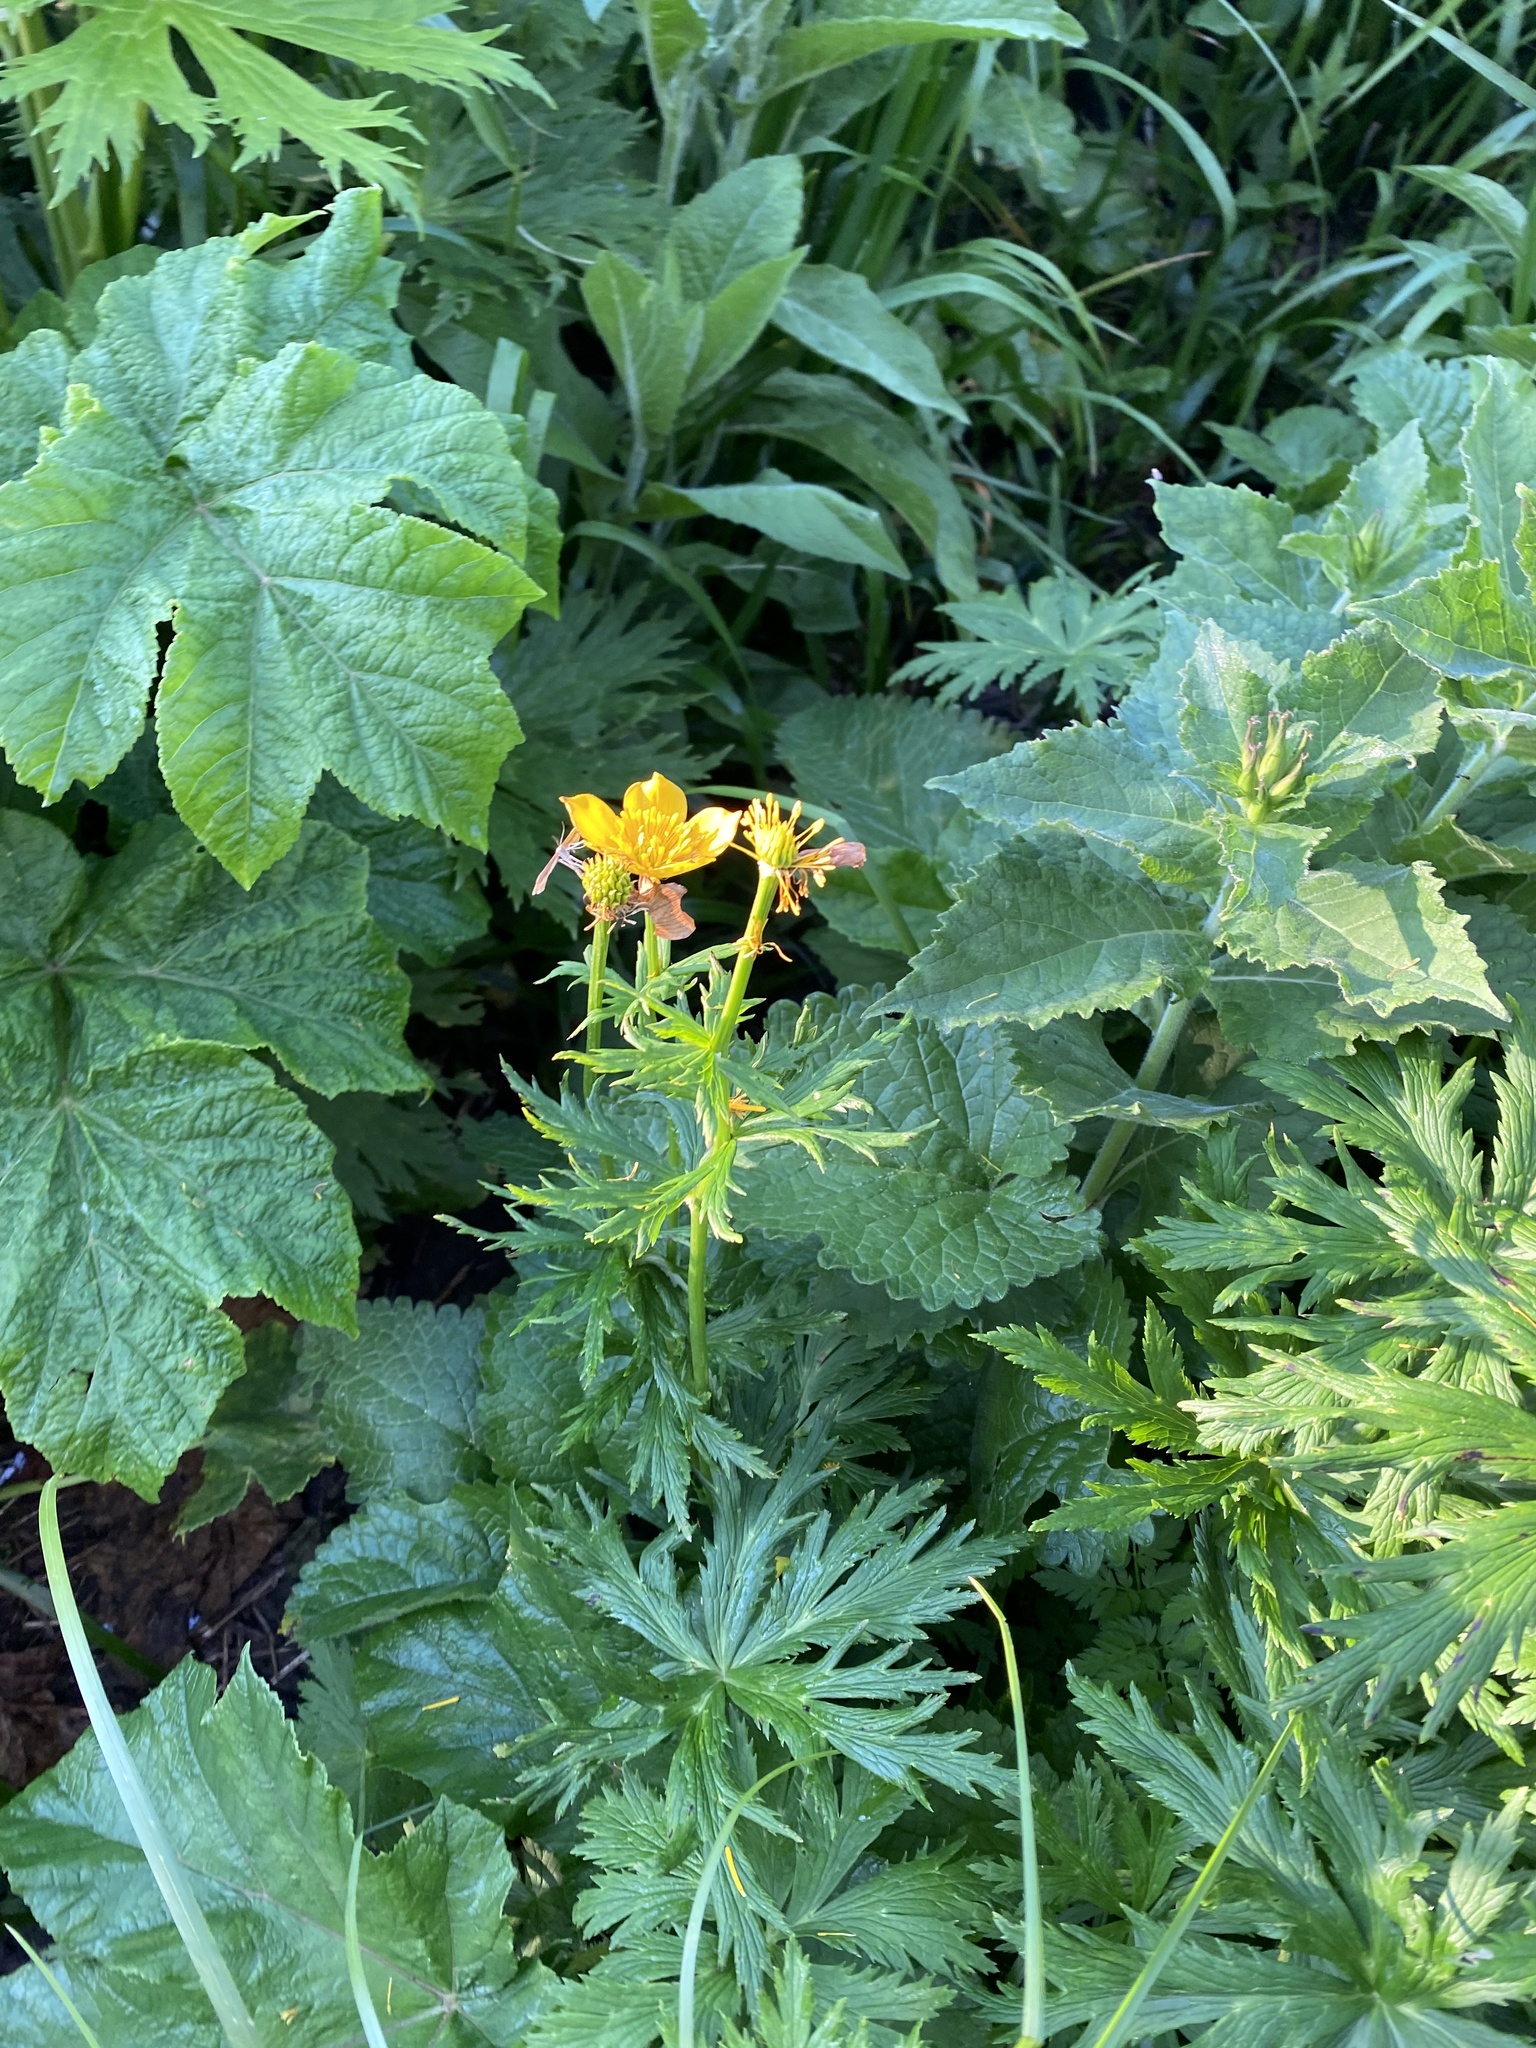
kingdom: Plantae
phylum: Tracheophyta
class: Magnoliopsida
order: Ranunculales
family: Ranunculaceae
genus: Trollius
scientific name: Trollius ranunculinus
